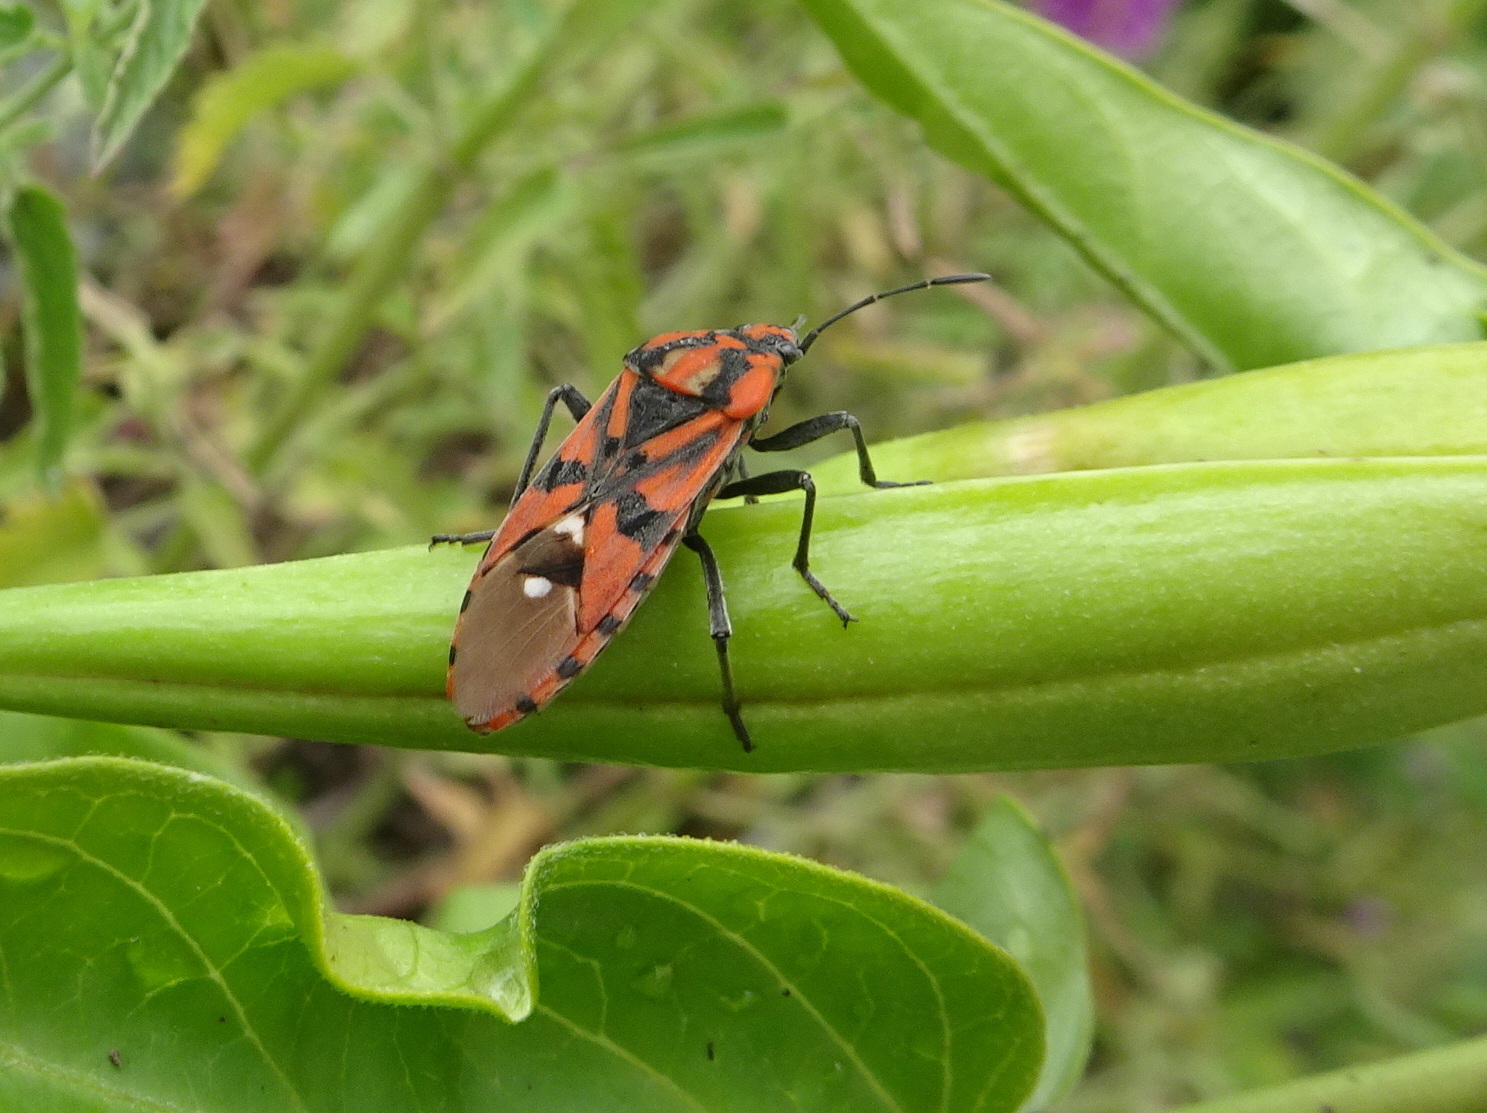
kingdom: Animalia
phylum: Arthropoda
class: Insecta
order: Hemiptera
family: Lygaeidae
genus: Spilostethus
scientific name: Spilostethus pandurus
